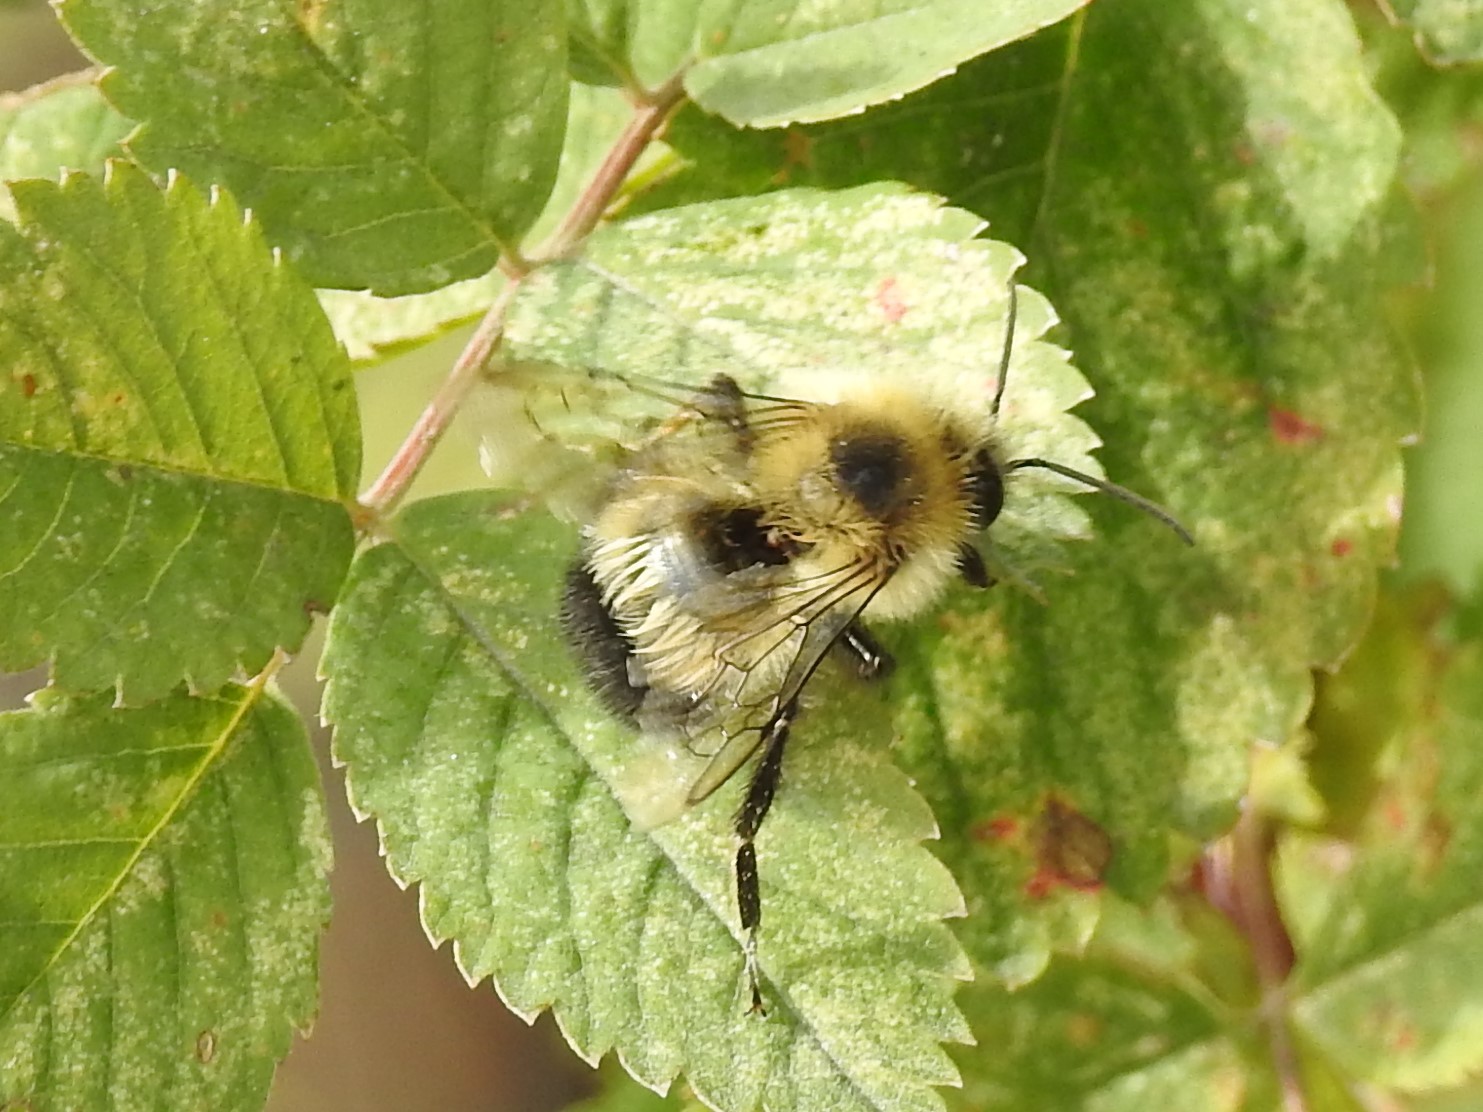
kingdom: Animalia
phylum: Arthropoda
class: Insecta
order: Hymenoptera
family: Apidae
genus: Bombus
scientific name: Bombus vagans
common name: Half-black bumble bee
